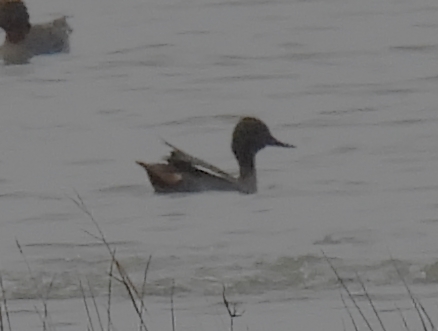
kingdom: Animalia
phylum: Chordata
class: Aves
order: Anseriformes
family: Anatidae
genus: Anas
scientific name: Anas crecca
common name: Eurasian teal
